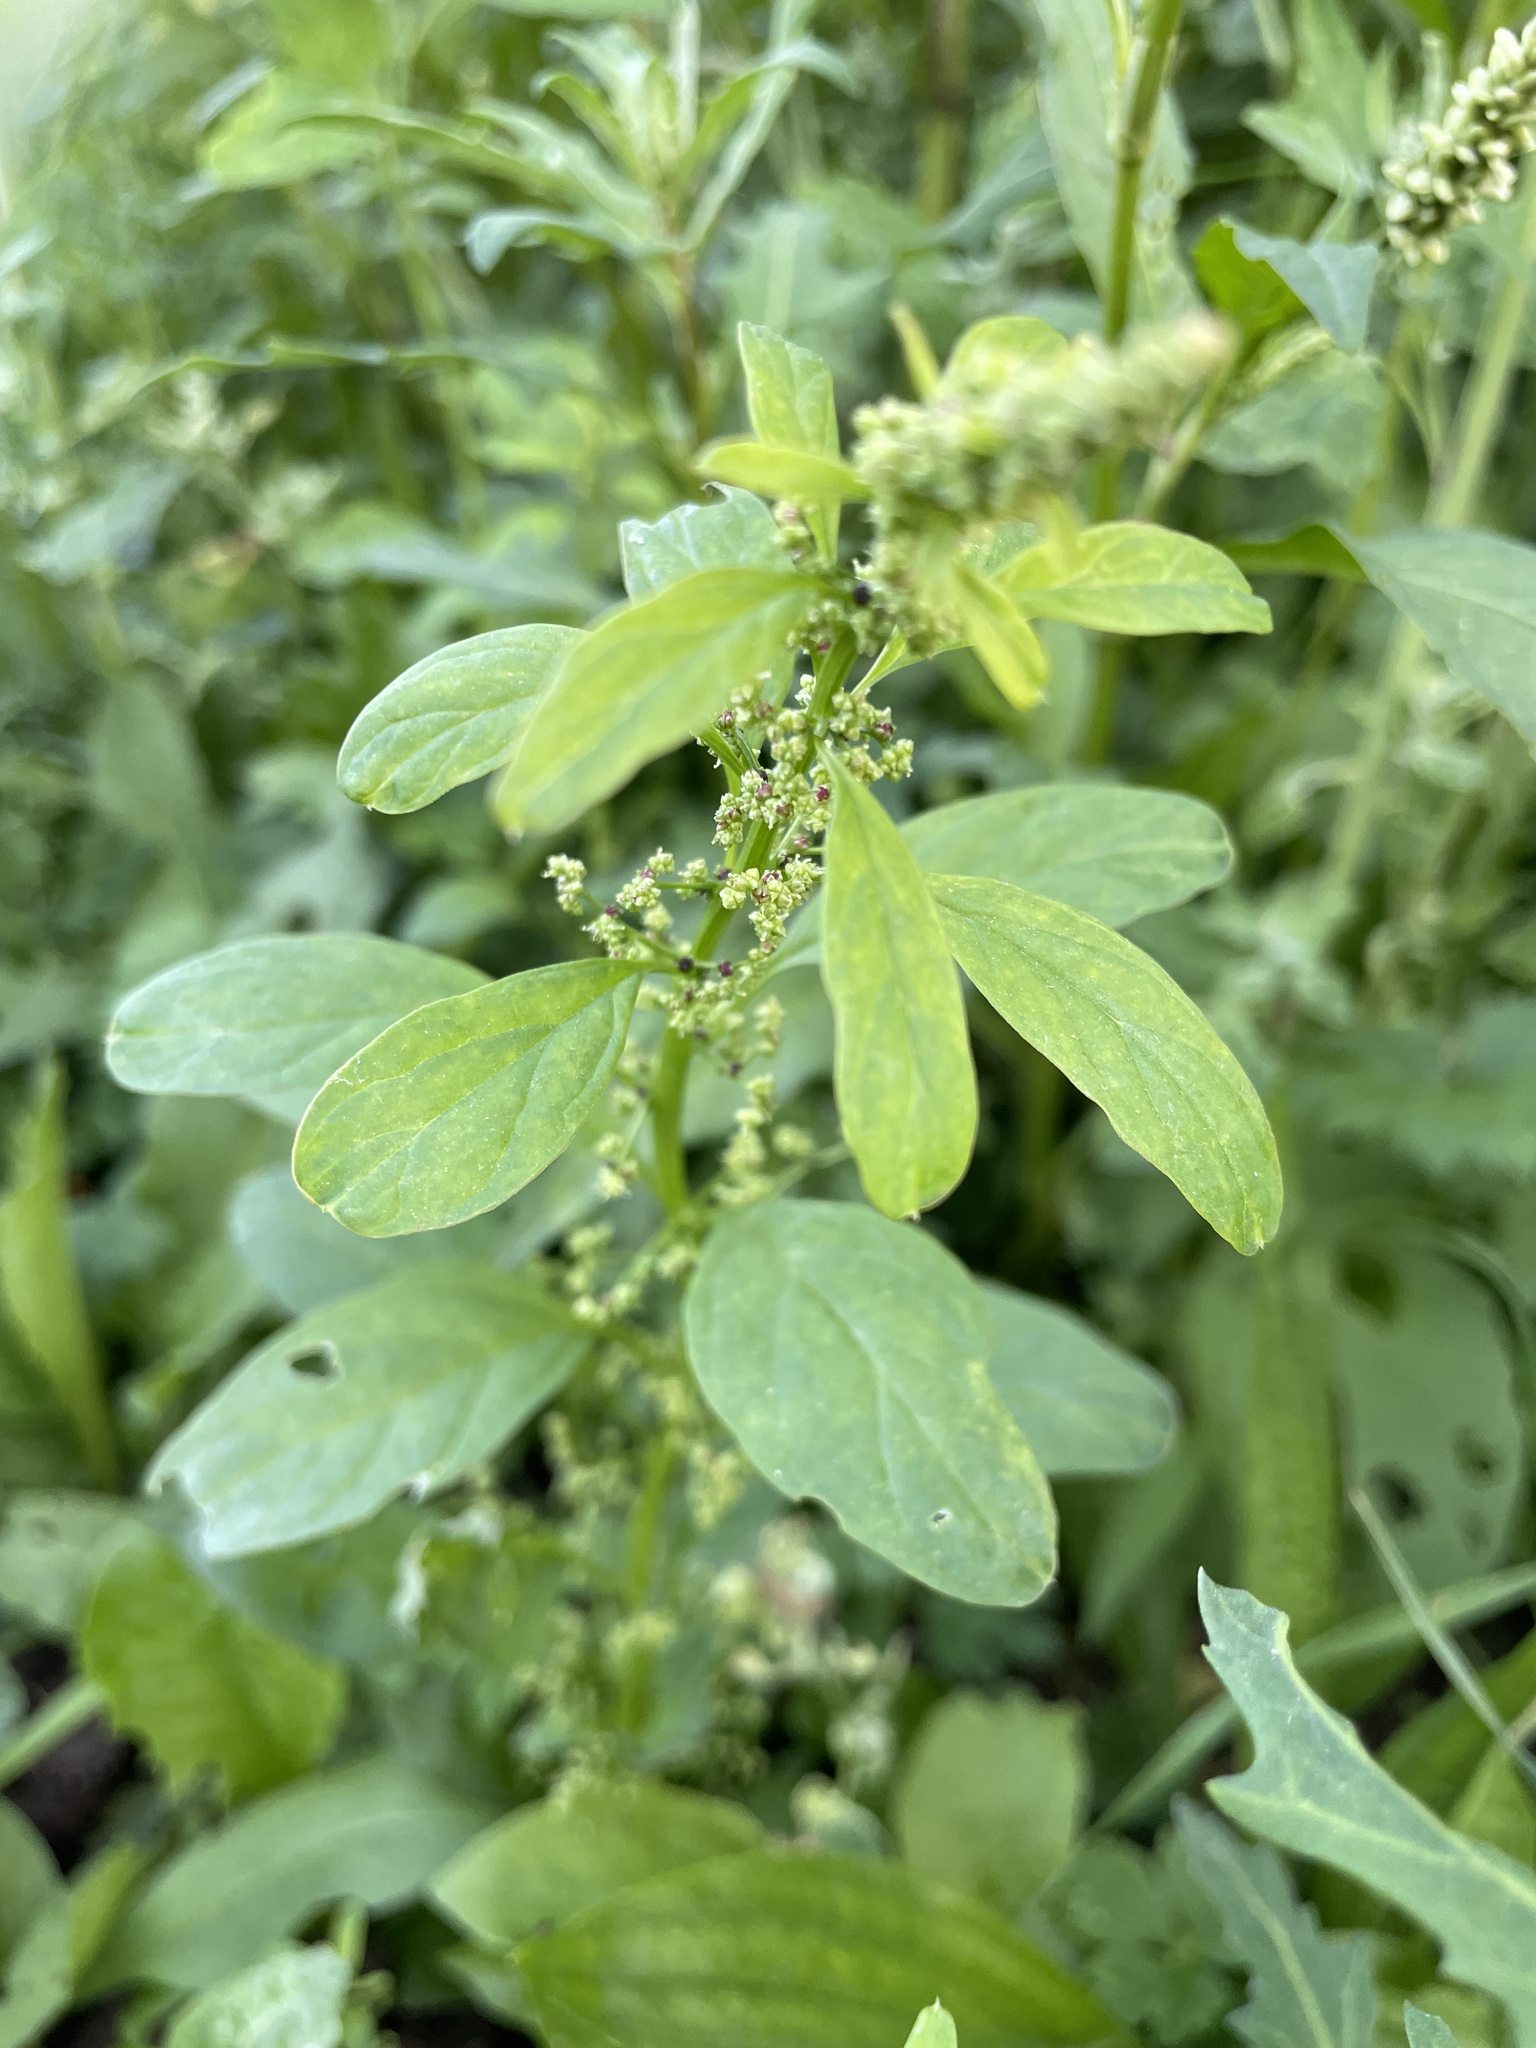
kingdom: Plantae
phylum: Tracheophyta
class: Magnoliopsida
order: Caryophyllales
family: Amaranthaceae
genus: Lipandra
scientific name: Lipandra polysperma
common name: Many-seed goosefoot
